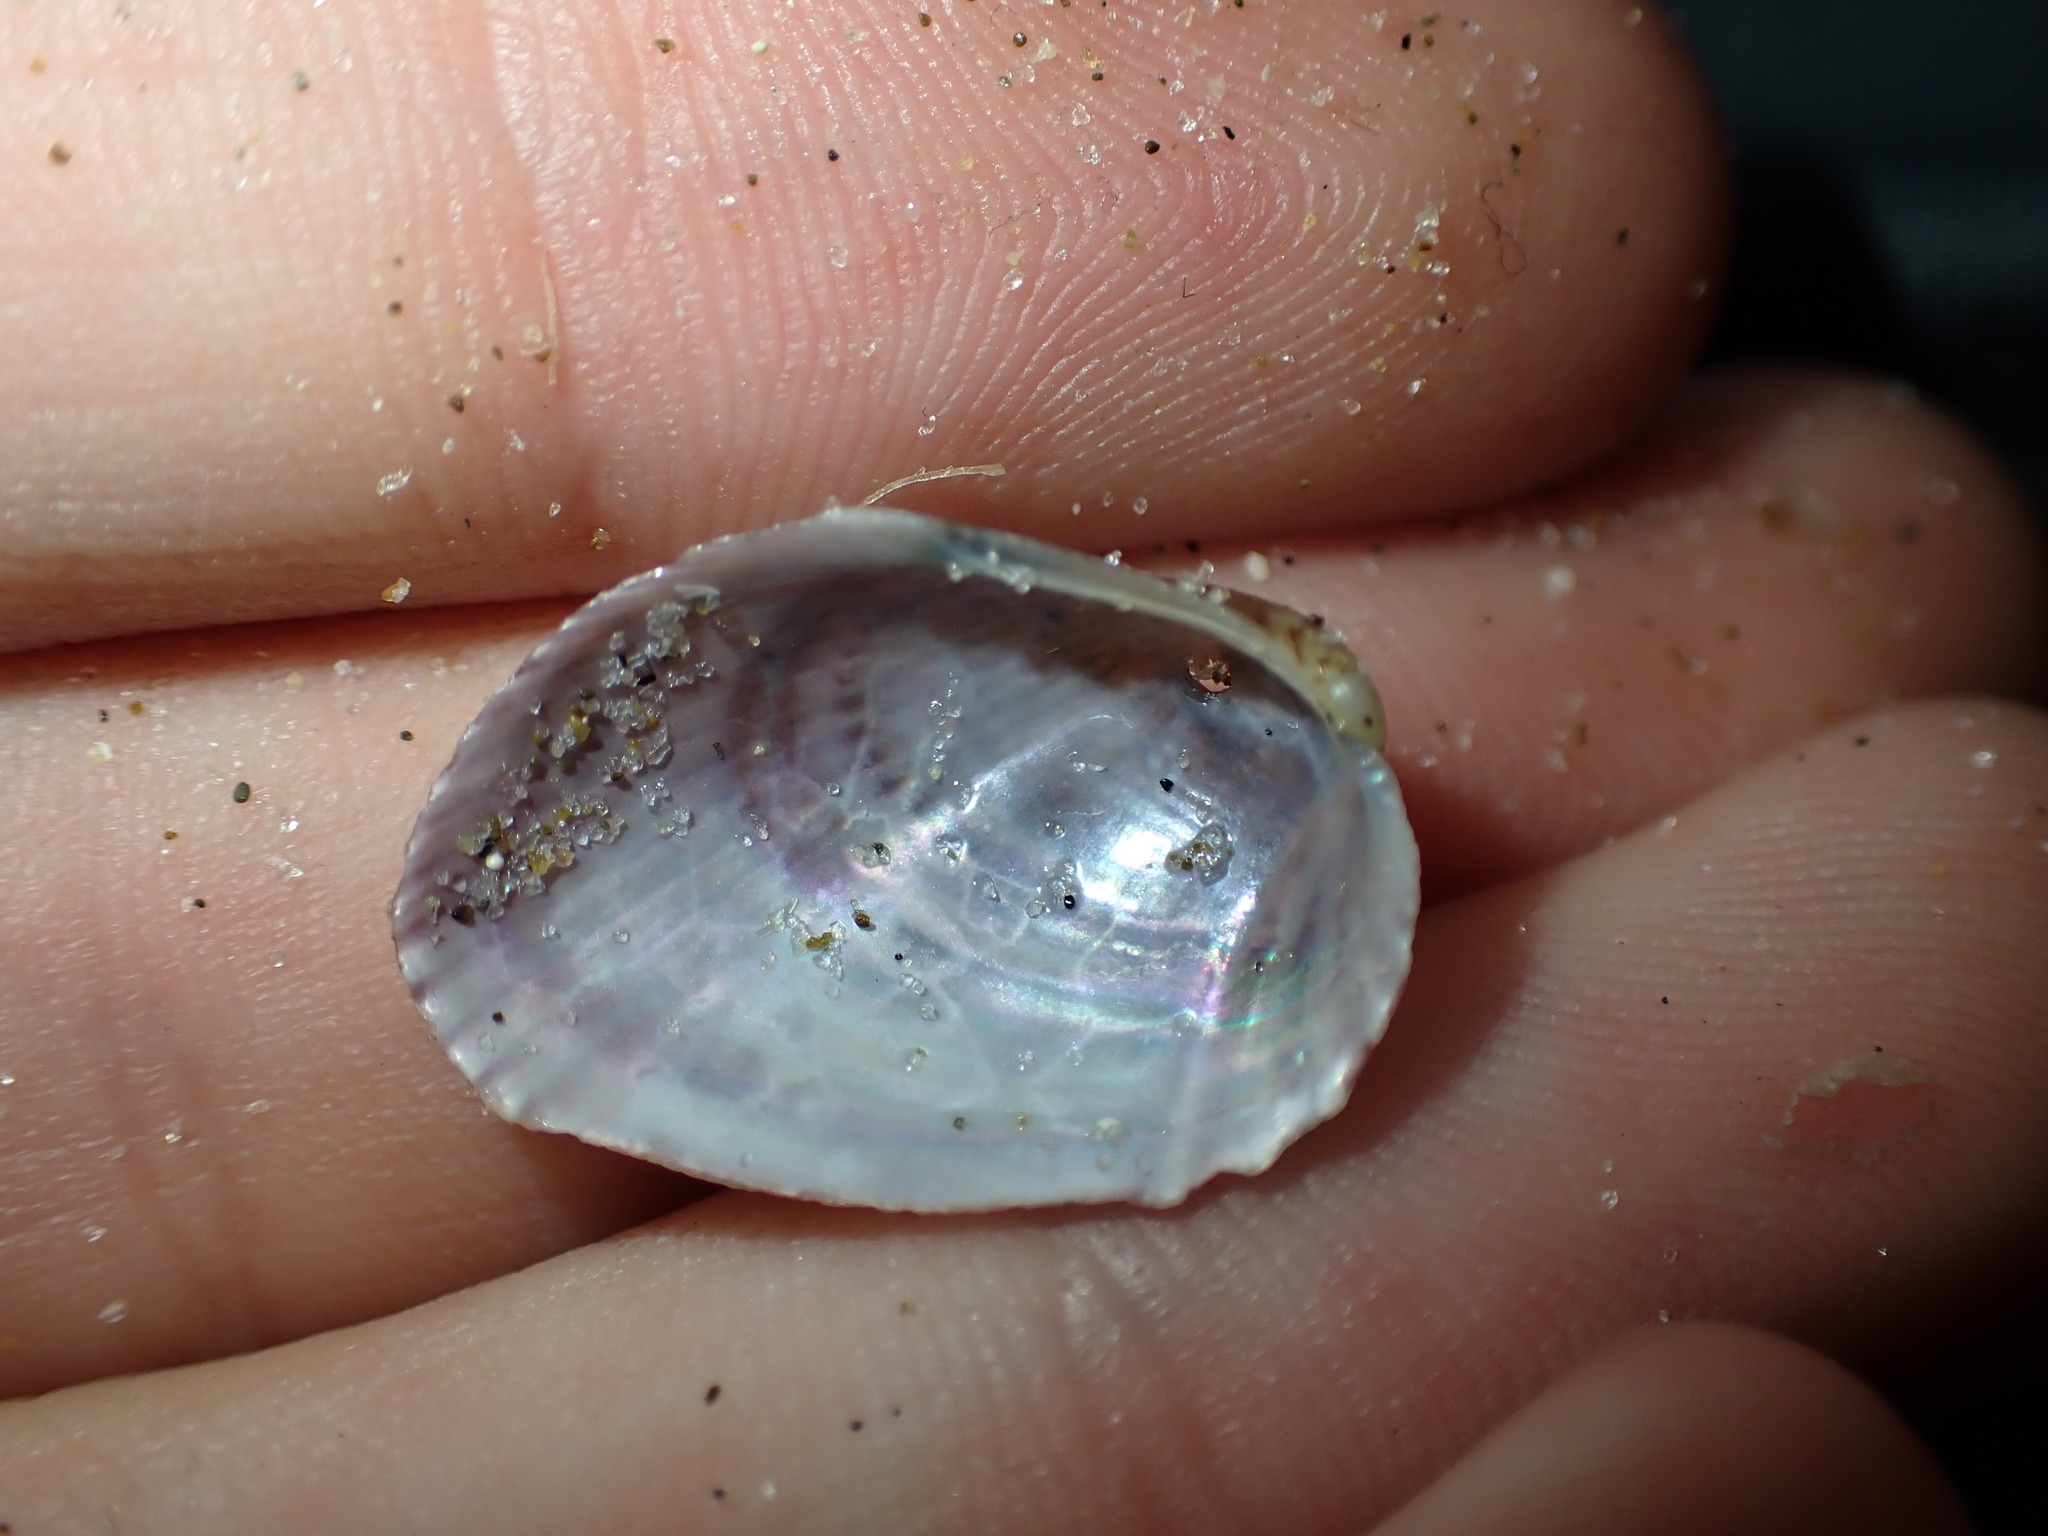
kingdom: Animalia
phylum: Mollusca
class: Bivalvia
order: Mytilida
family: Mytilidae
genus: Musculus
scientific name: Musculus impactus
